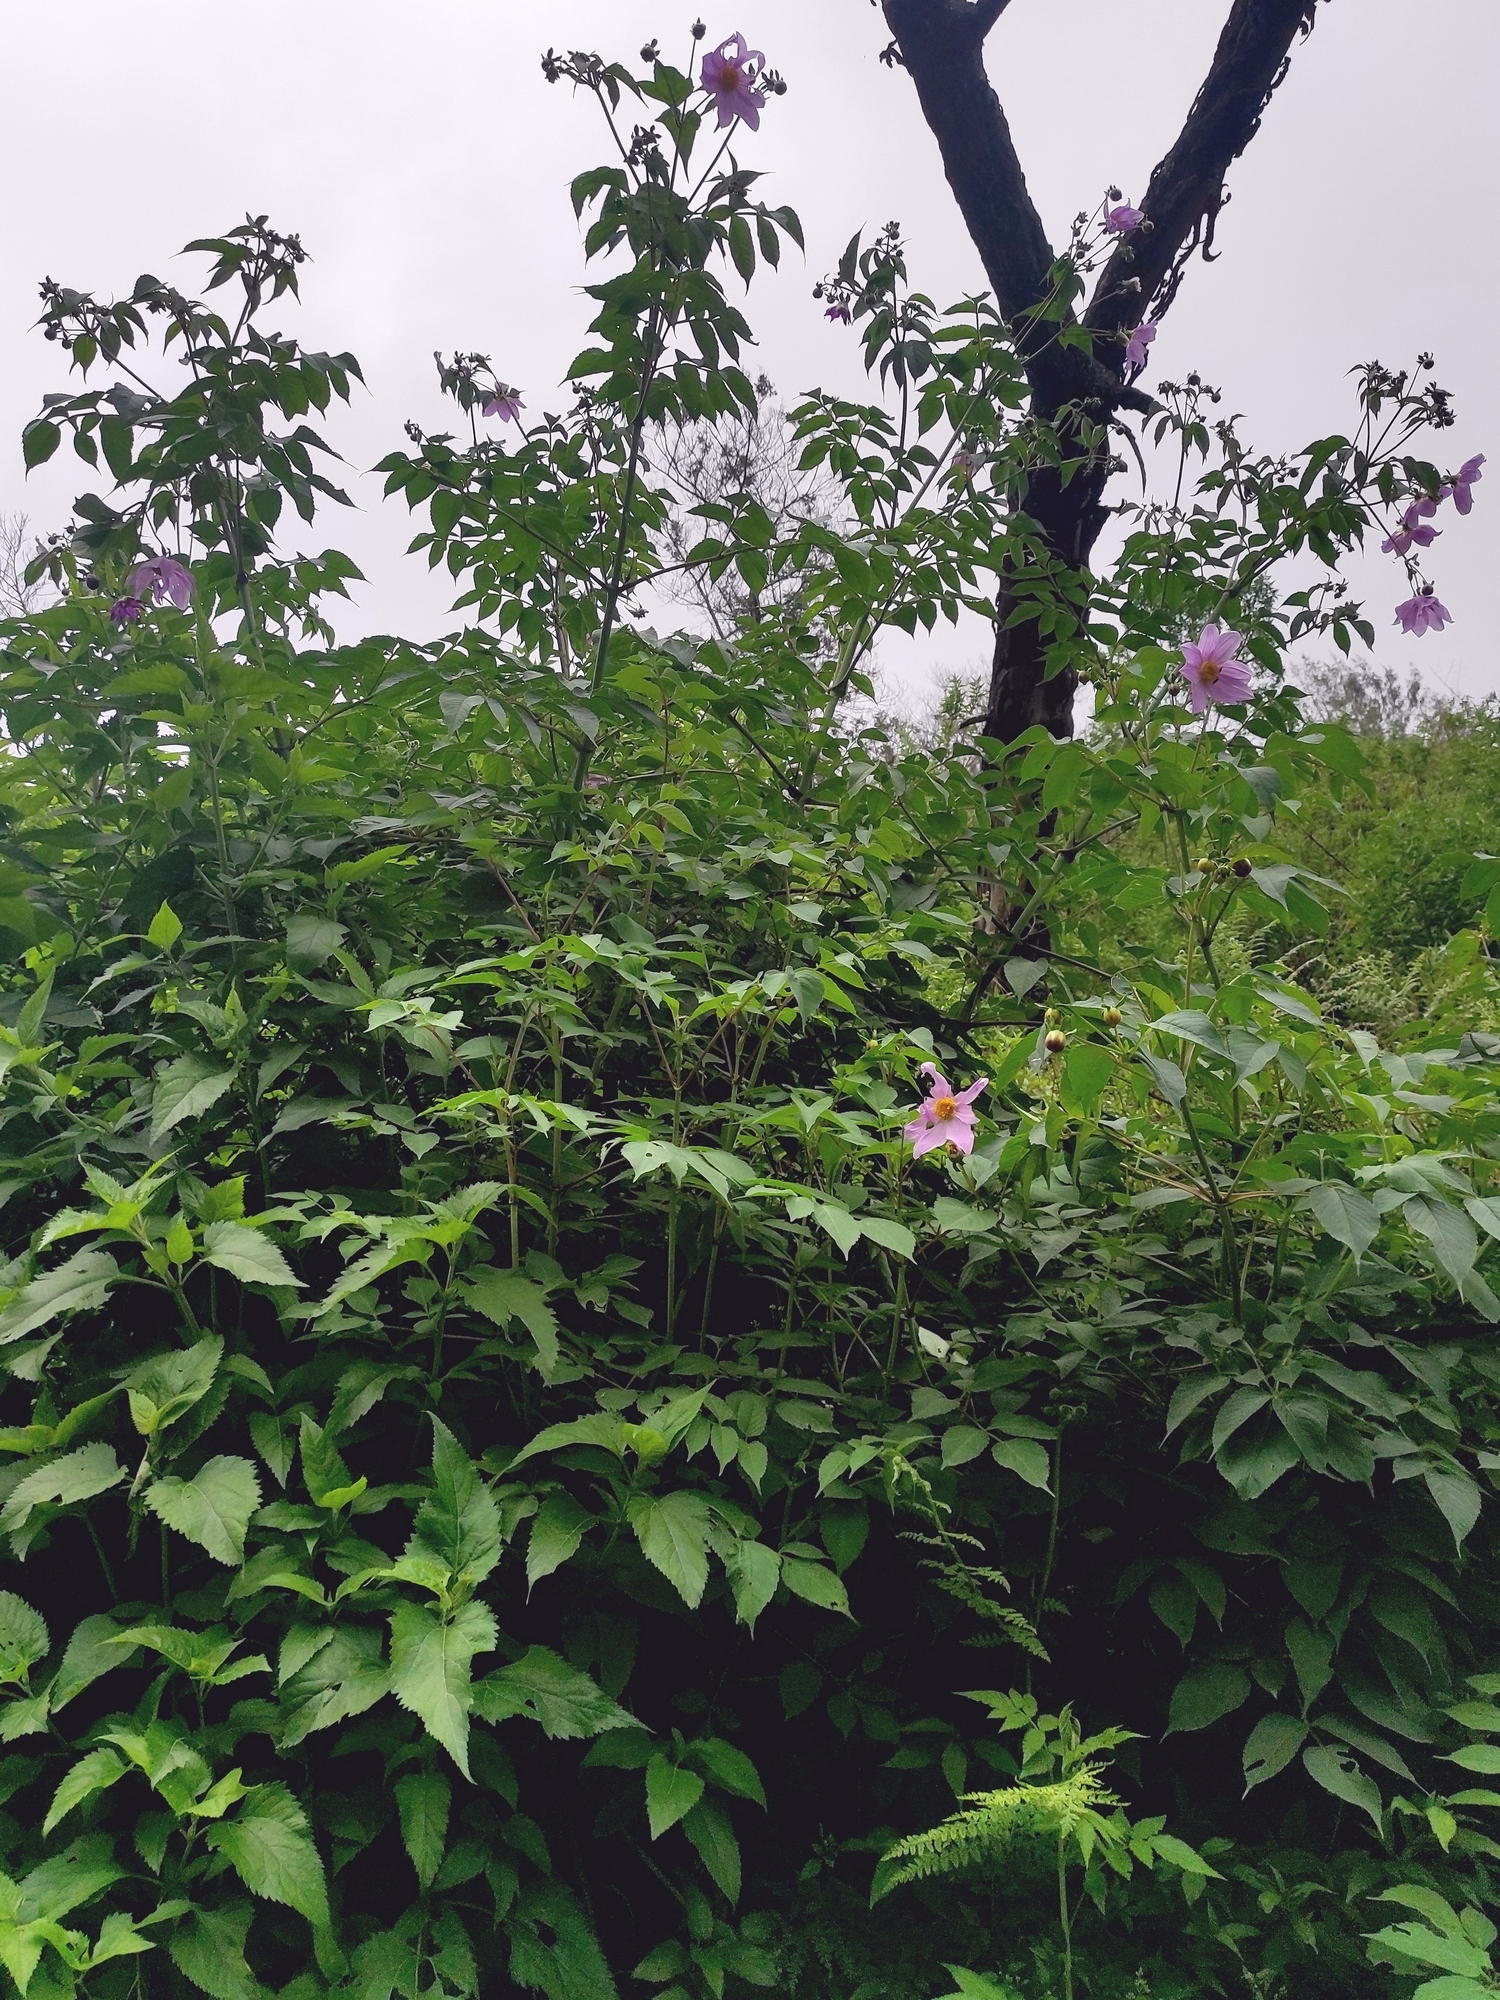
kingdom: Plantae
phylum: Tracheophyta
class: Magnoliopsida
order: Asterales
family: Asteraceae
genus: Dahlia
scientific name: Dahlia imperialis
